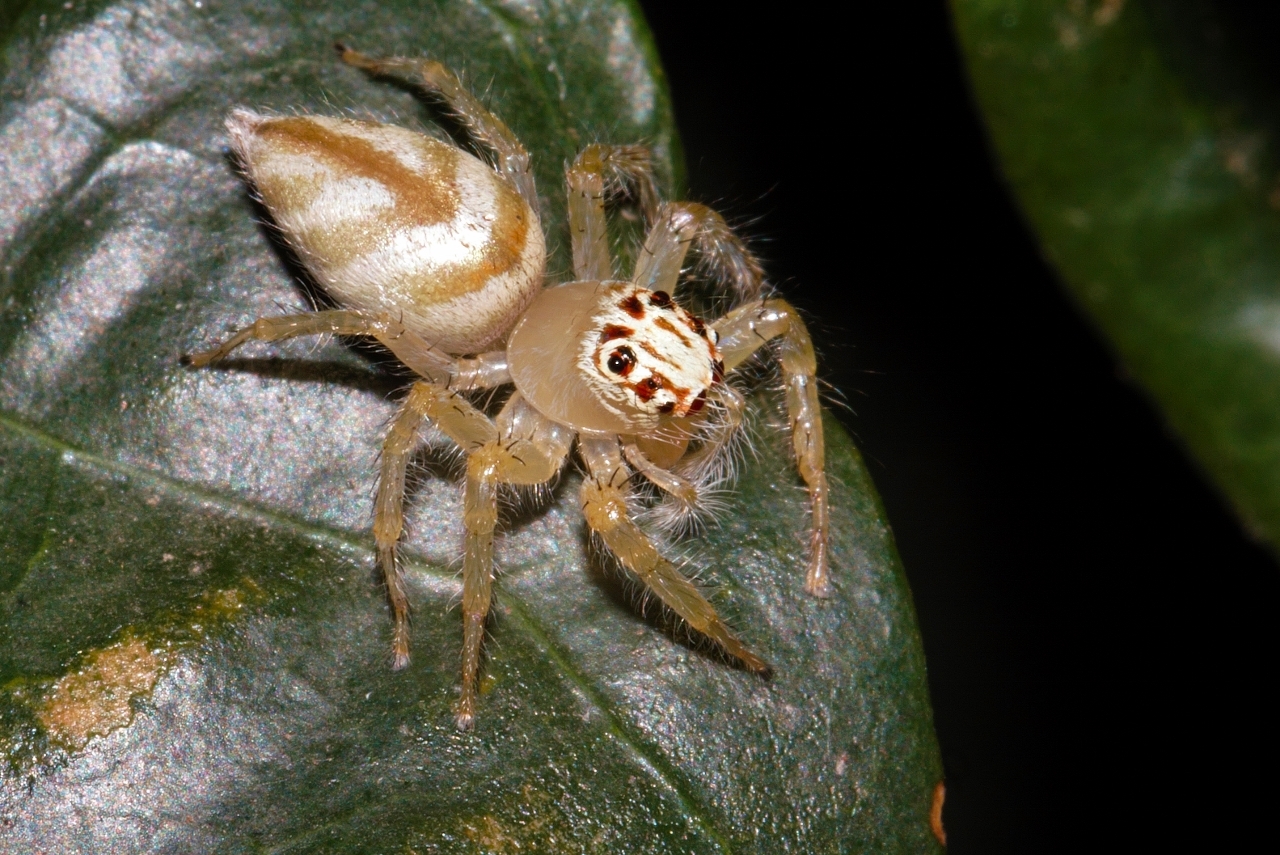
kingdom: Animalia
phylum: Arthropoda
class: Arachnida
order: Araneae
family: Salticidae
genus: Brancus
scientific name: Brancus mustelus
